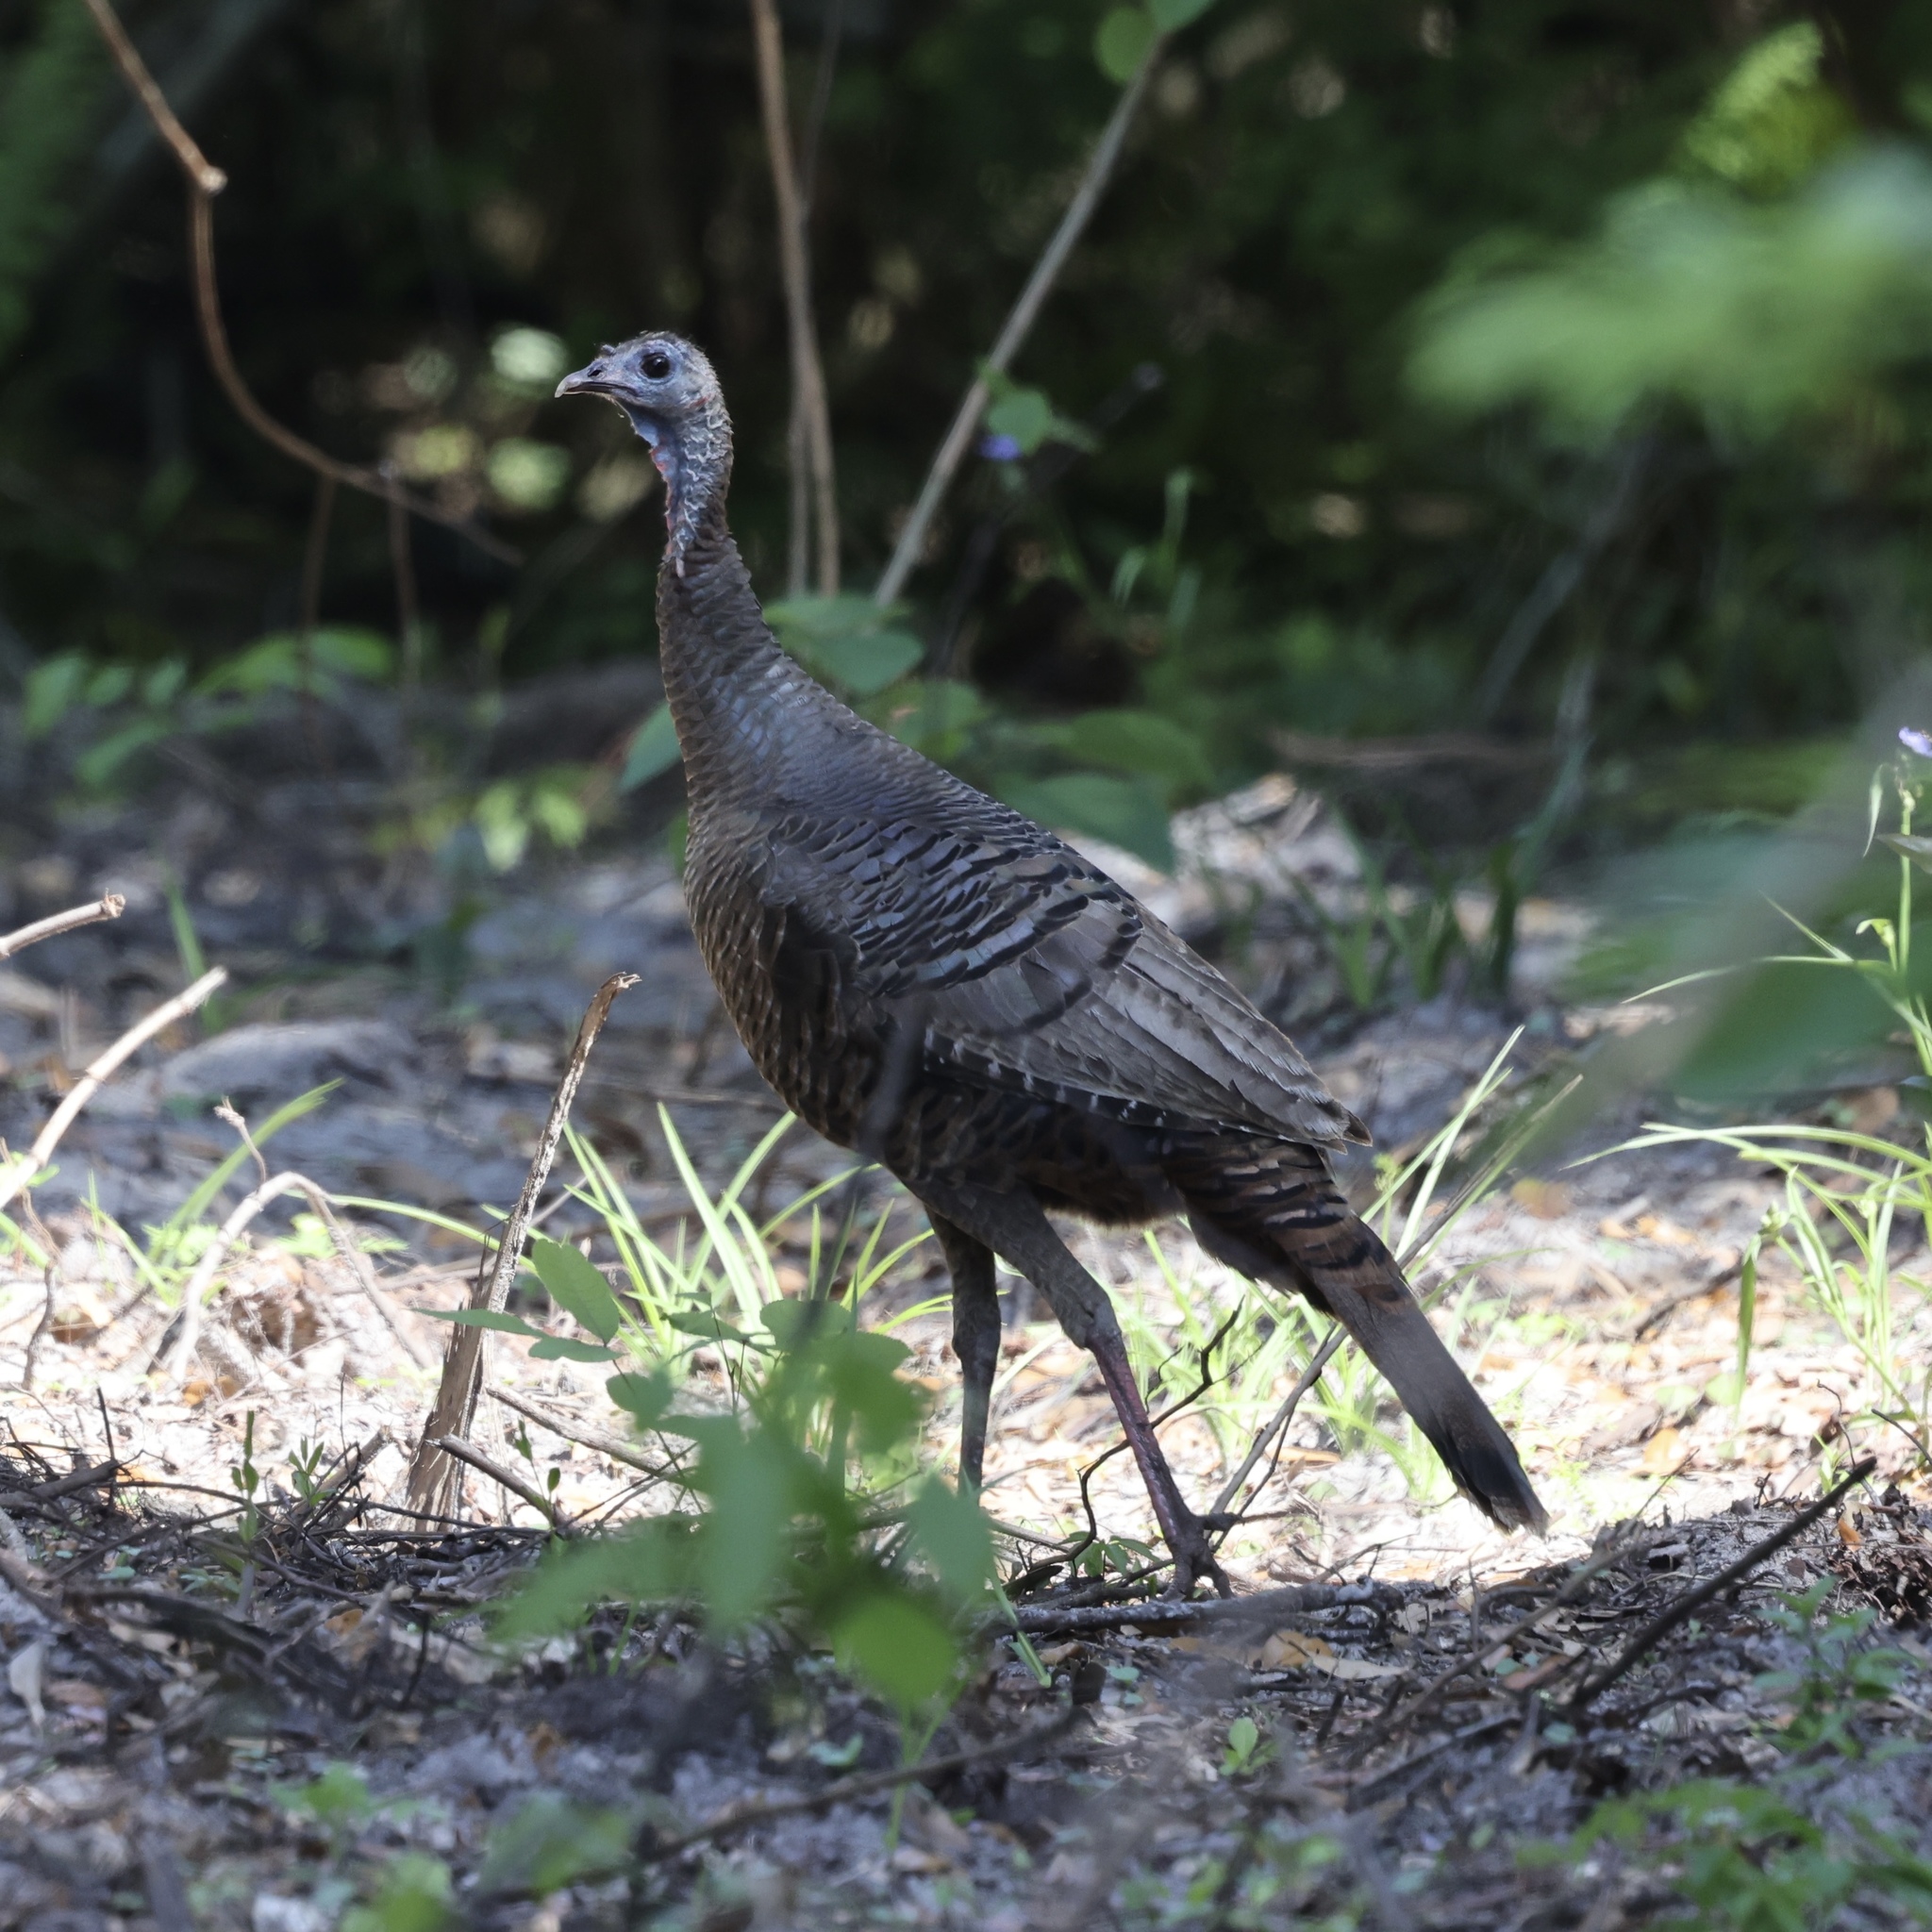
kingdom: Animalia
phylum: Chordata
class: Aves
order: Galliformes
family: Phasianidae
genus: Meleagris
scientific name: Meleagris gallopavo
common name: Wild turkey
